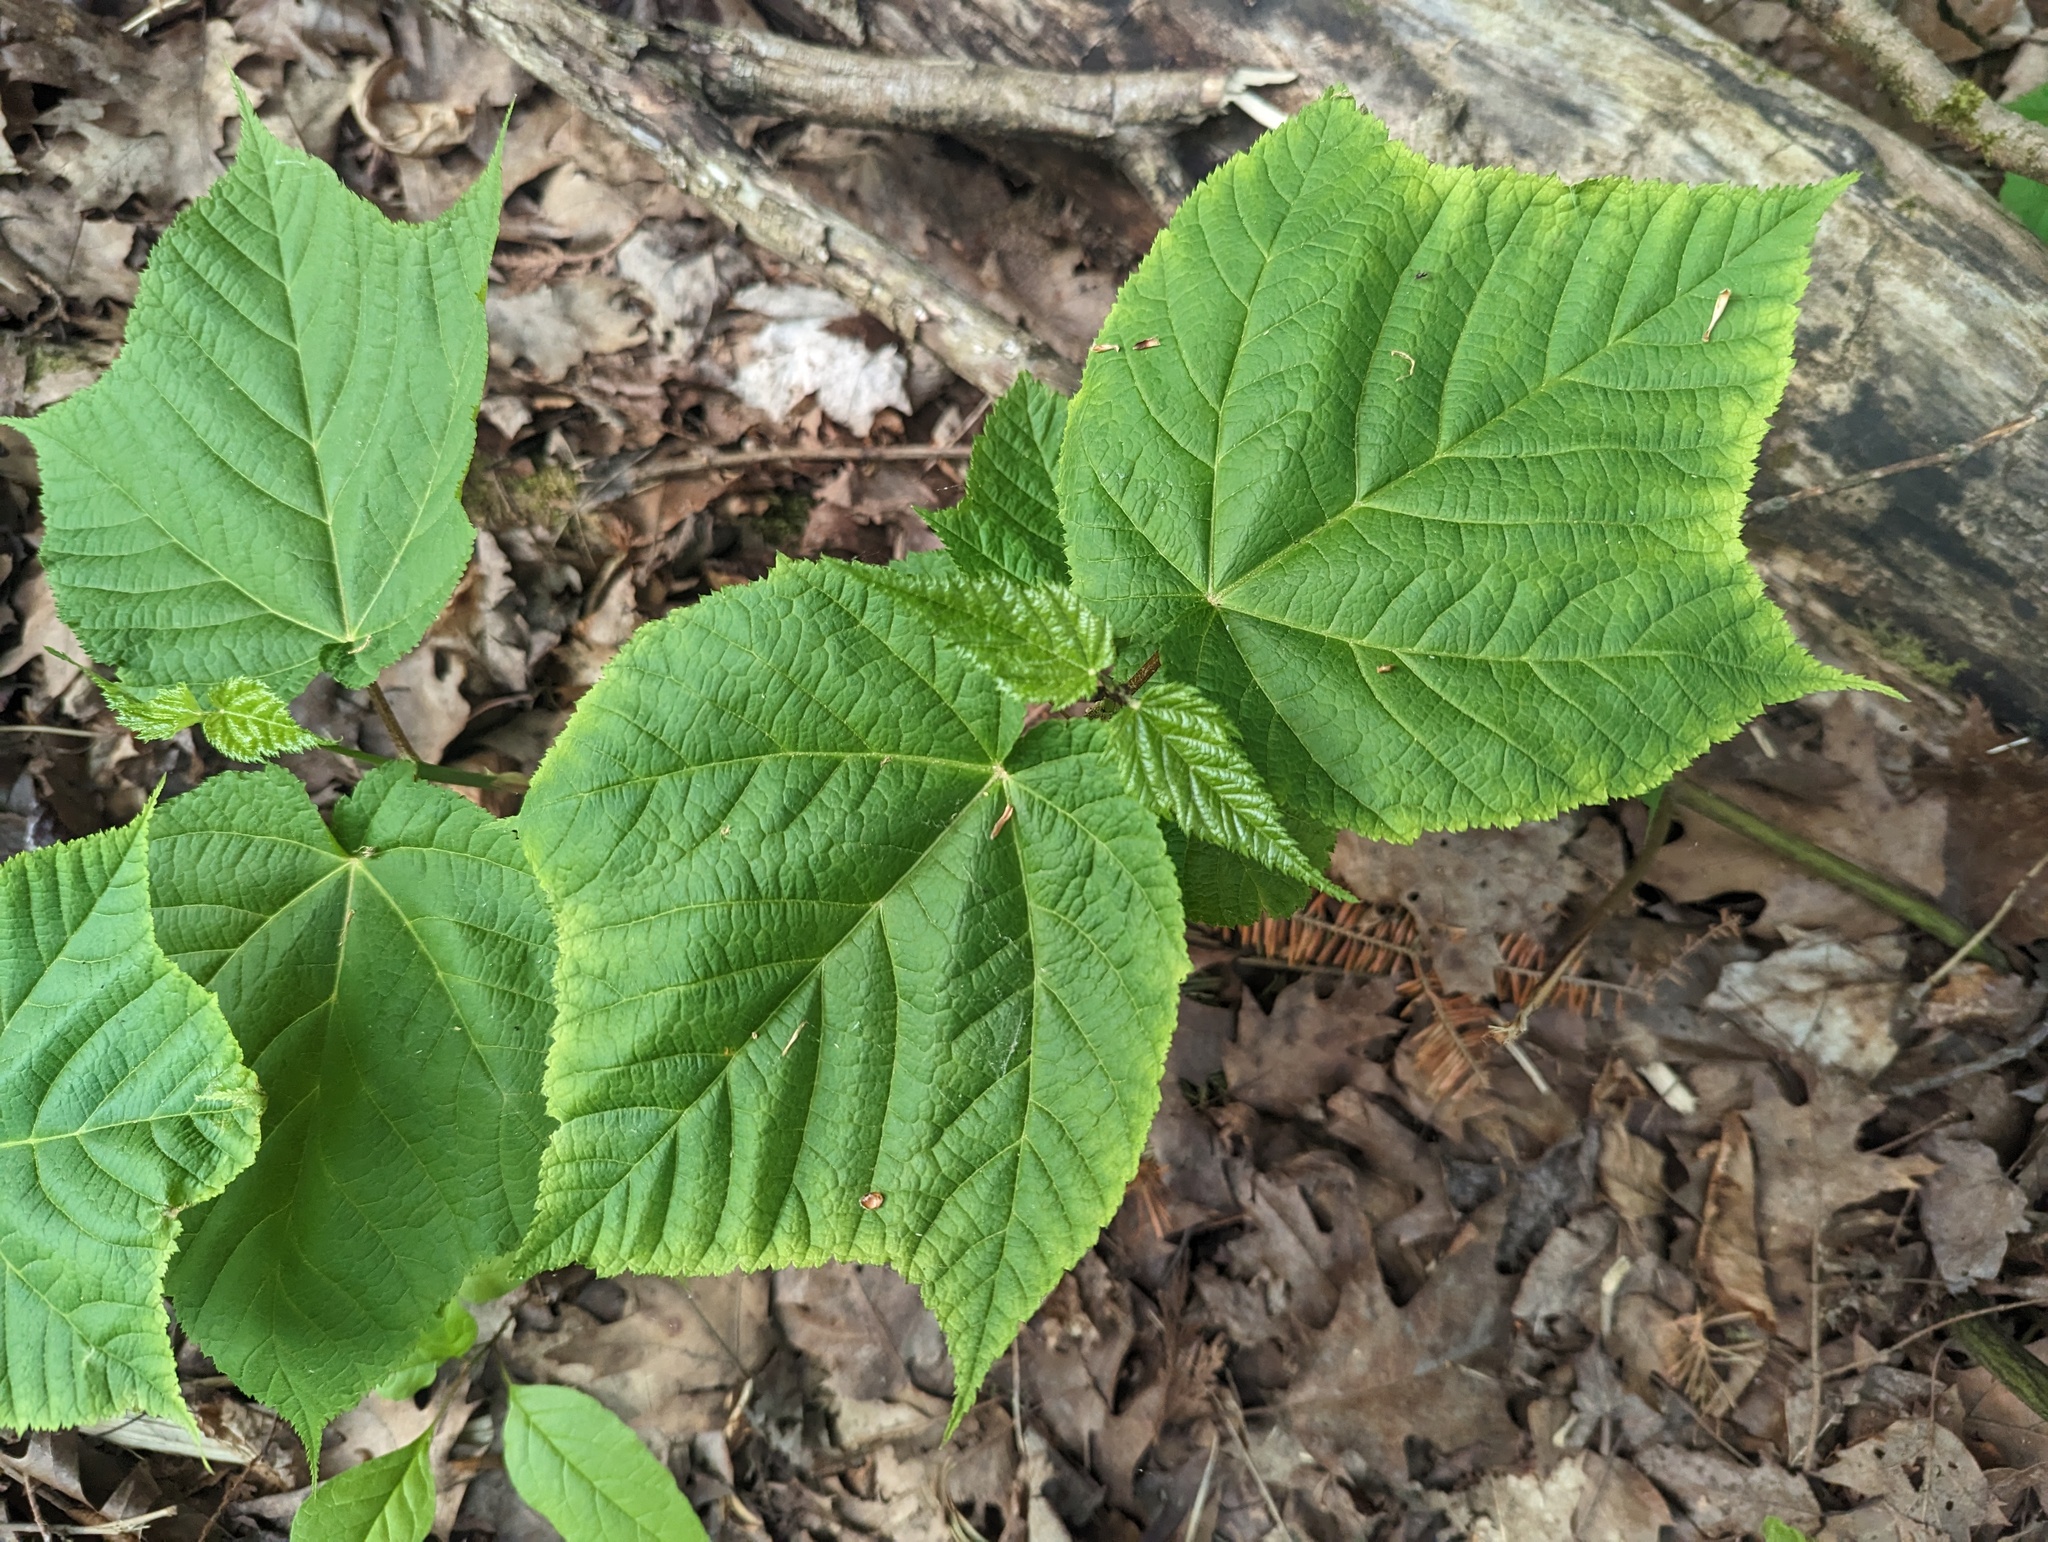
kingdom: Plantae
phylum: Tracheophyta
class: Magnoliopsida
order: Sapindales
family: Sapindaceae
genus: Acer
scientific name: Acer pensylvanicum
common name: Moosewood
